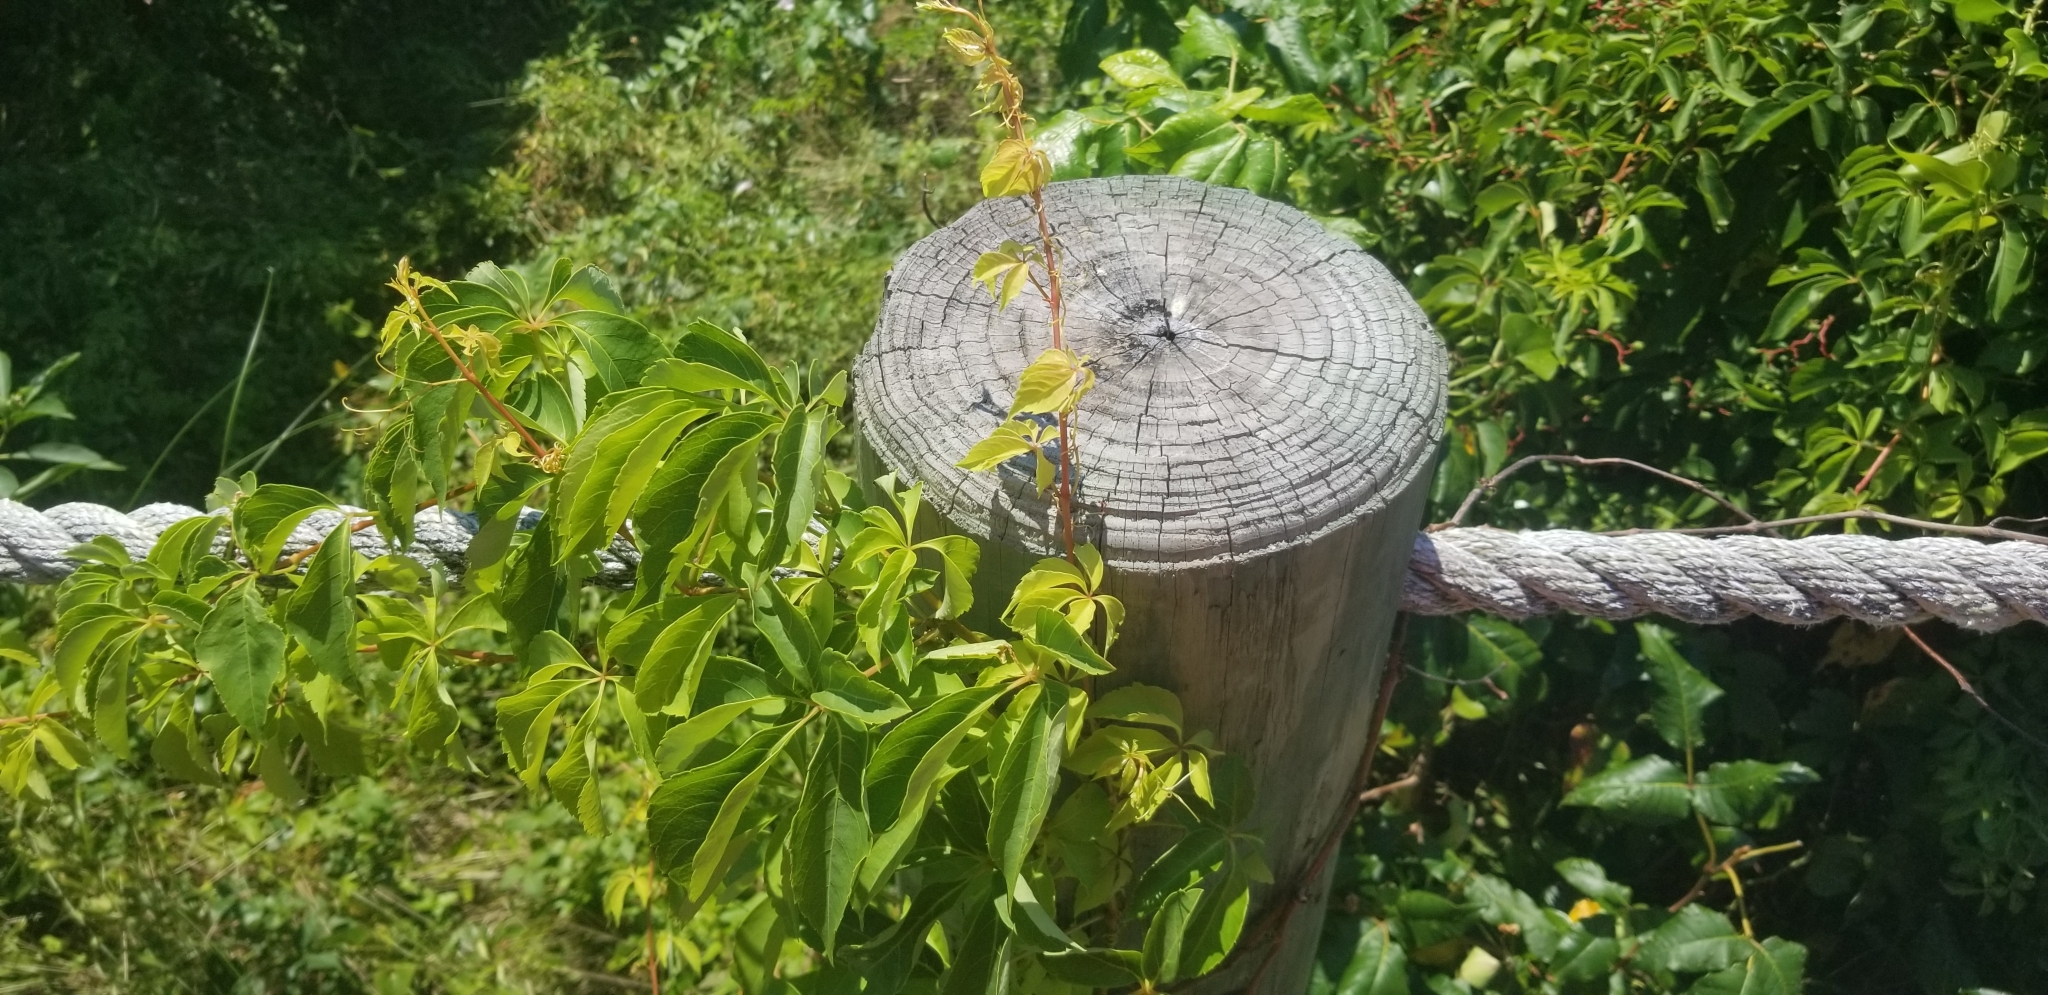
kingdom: Plantae
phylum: Tracheophyta
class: Magnoliopsida
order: Vitales
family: Vitaceae
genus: Parthenocissus
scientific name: Parthenocissus quinquefolia
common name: Virginia-creeper
